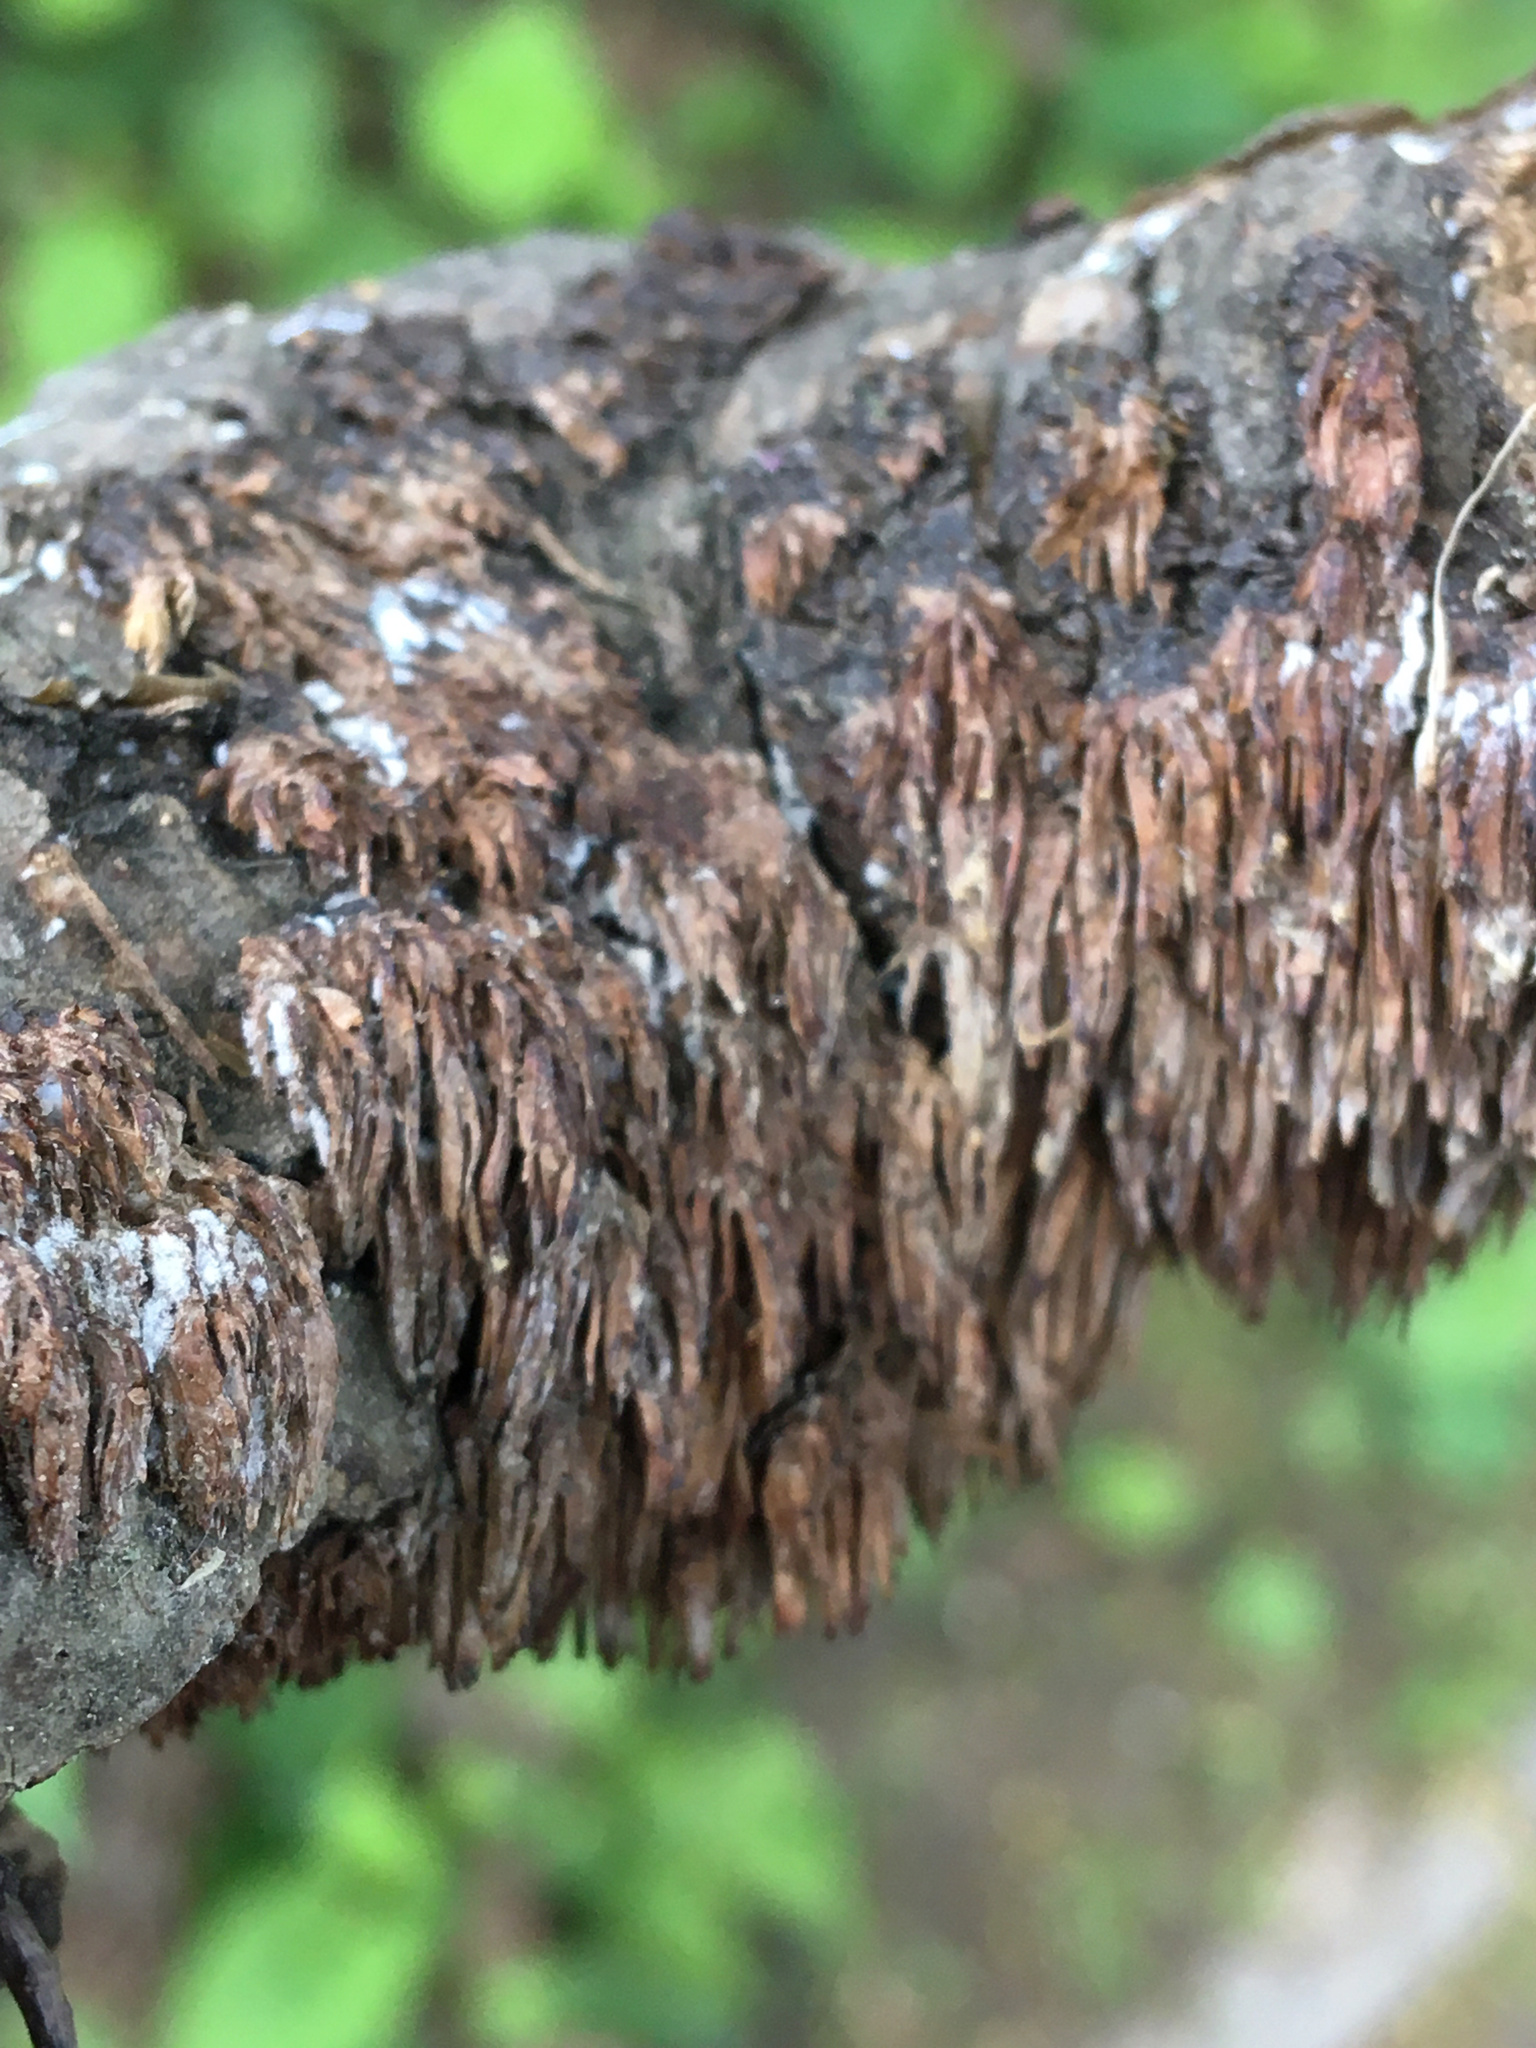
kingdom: Fungi
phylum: Basidiomycota
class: Agaricomycetes
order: Hymenochaetales
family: Hymenochaetaceae
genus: Hydnoporia
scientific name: Hydnoporia olivacea
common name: Brown-toothed crust fungus
